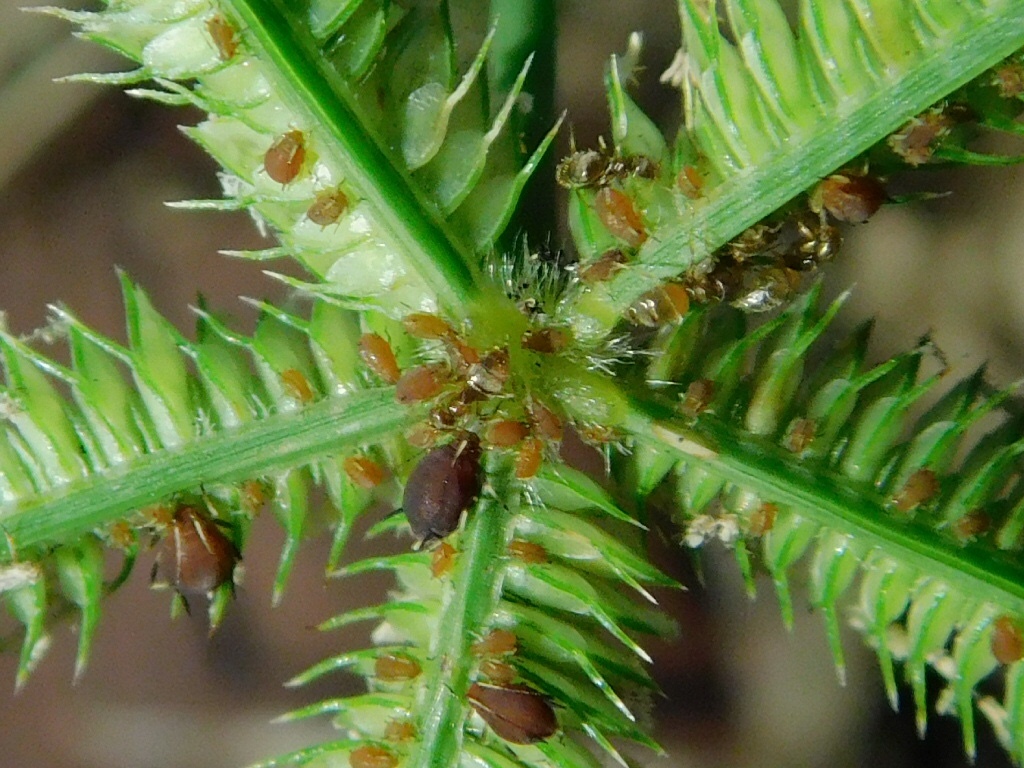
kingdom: Animalia
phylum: Arthropoda
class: Insecta
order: Hemiptera
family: Aphididae
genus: Hysteroneura
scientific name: Hysteroneura setariae
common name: Rusty plum aphid
